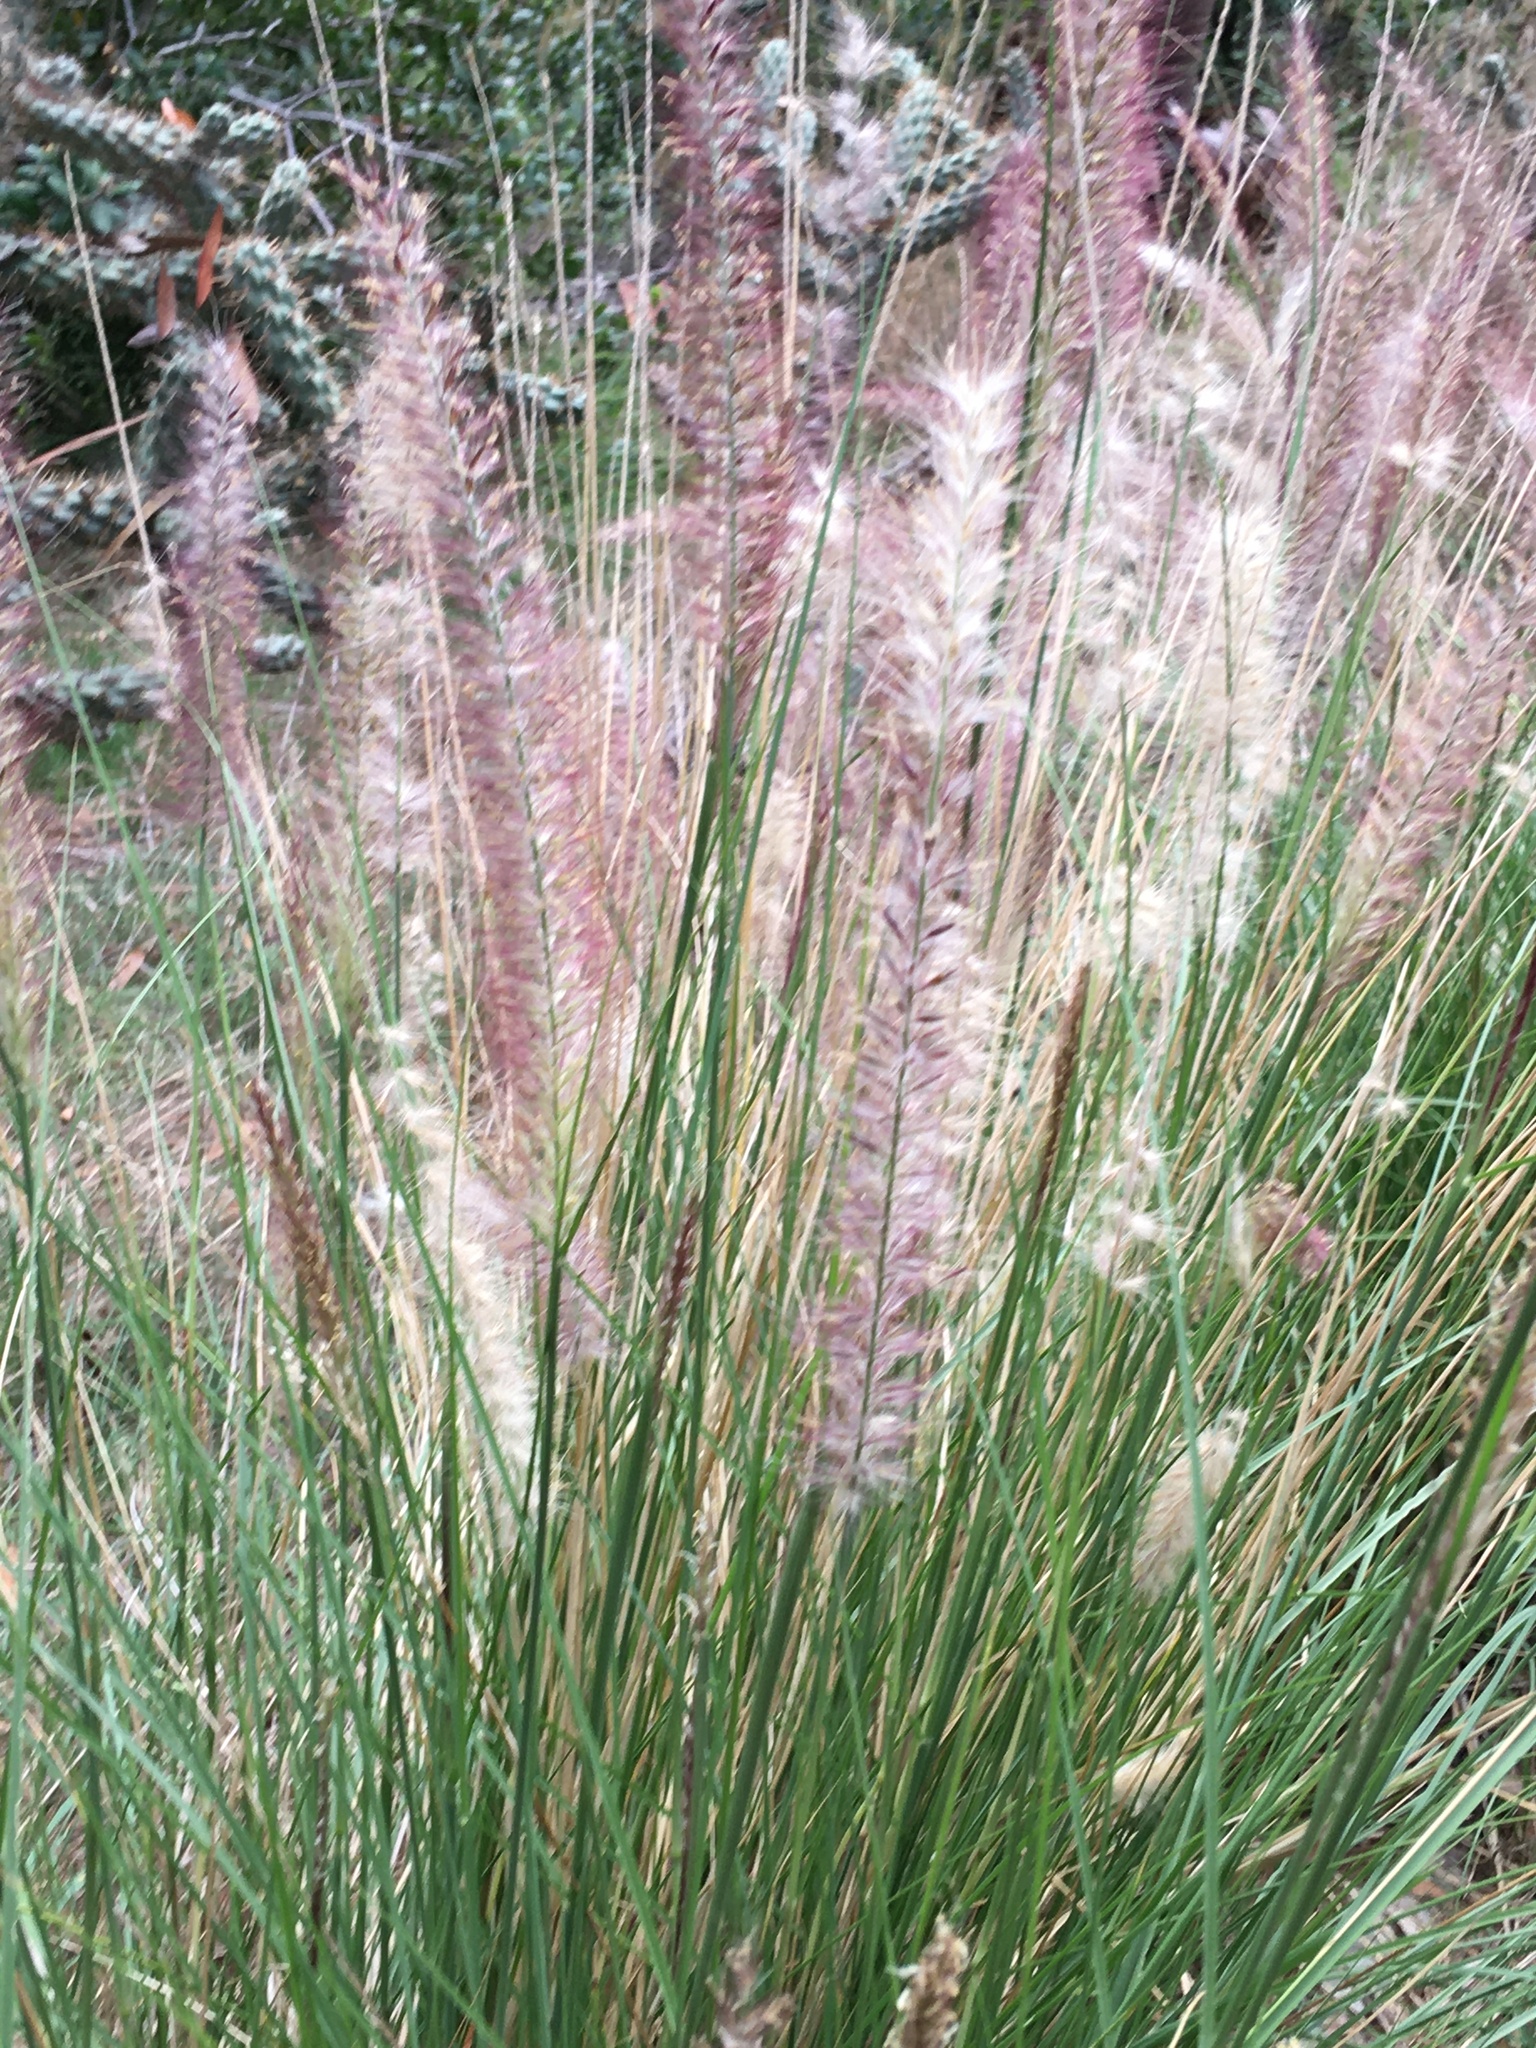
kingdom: Plantae
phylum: Tracheophyta
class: Liliopsida
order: Poales
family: Poaceae
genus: Cenchrus
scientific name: Cenchrus setaceus
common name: Crimson fountaingrass
